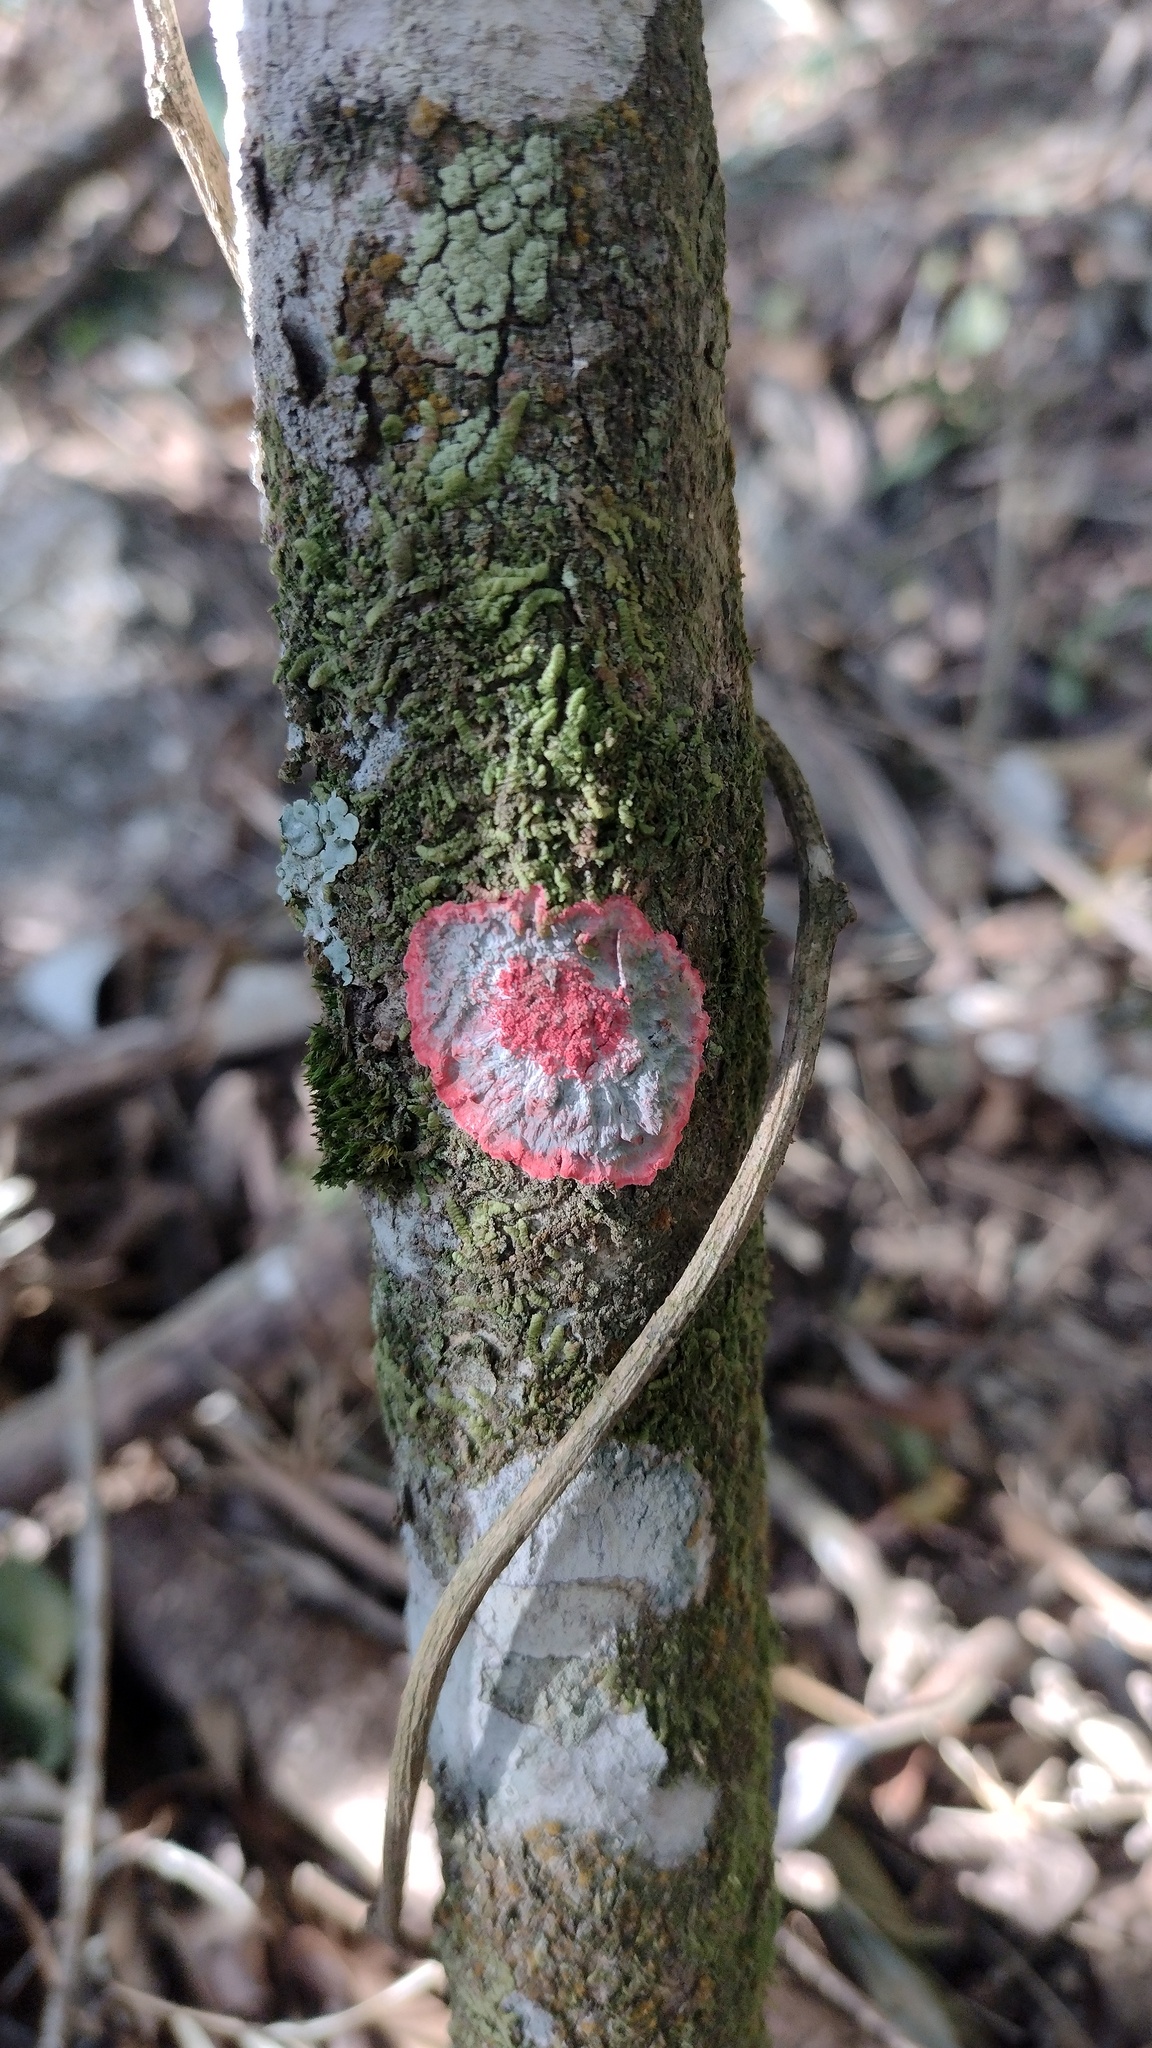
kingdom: Fungi
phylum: Ascomycota
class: Arthoniomycetes
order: Arthoniales
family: Arthoniaceae
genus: Herpothallon
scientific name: Herpothallon rubrocinctum
